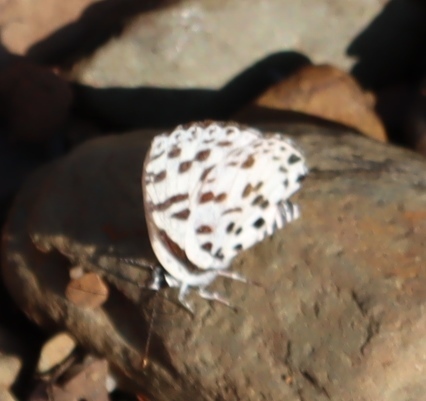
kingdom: Animalia
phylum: Arthropoda
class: Insecta
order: Lepidoptera
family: Lycaenidae
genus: Zintha
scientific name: Zintha hintza
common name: Hintza pierrot
